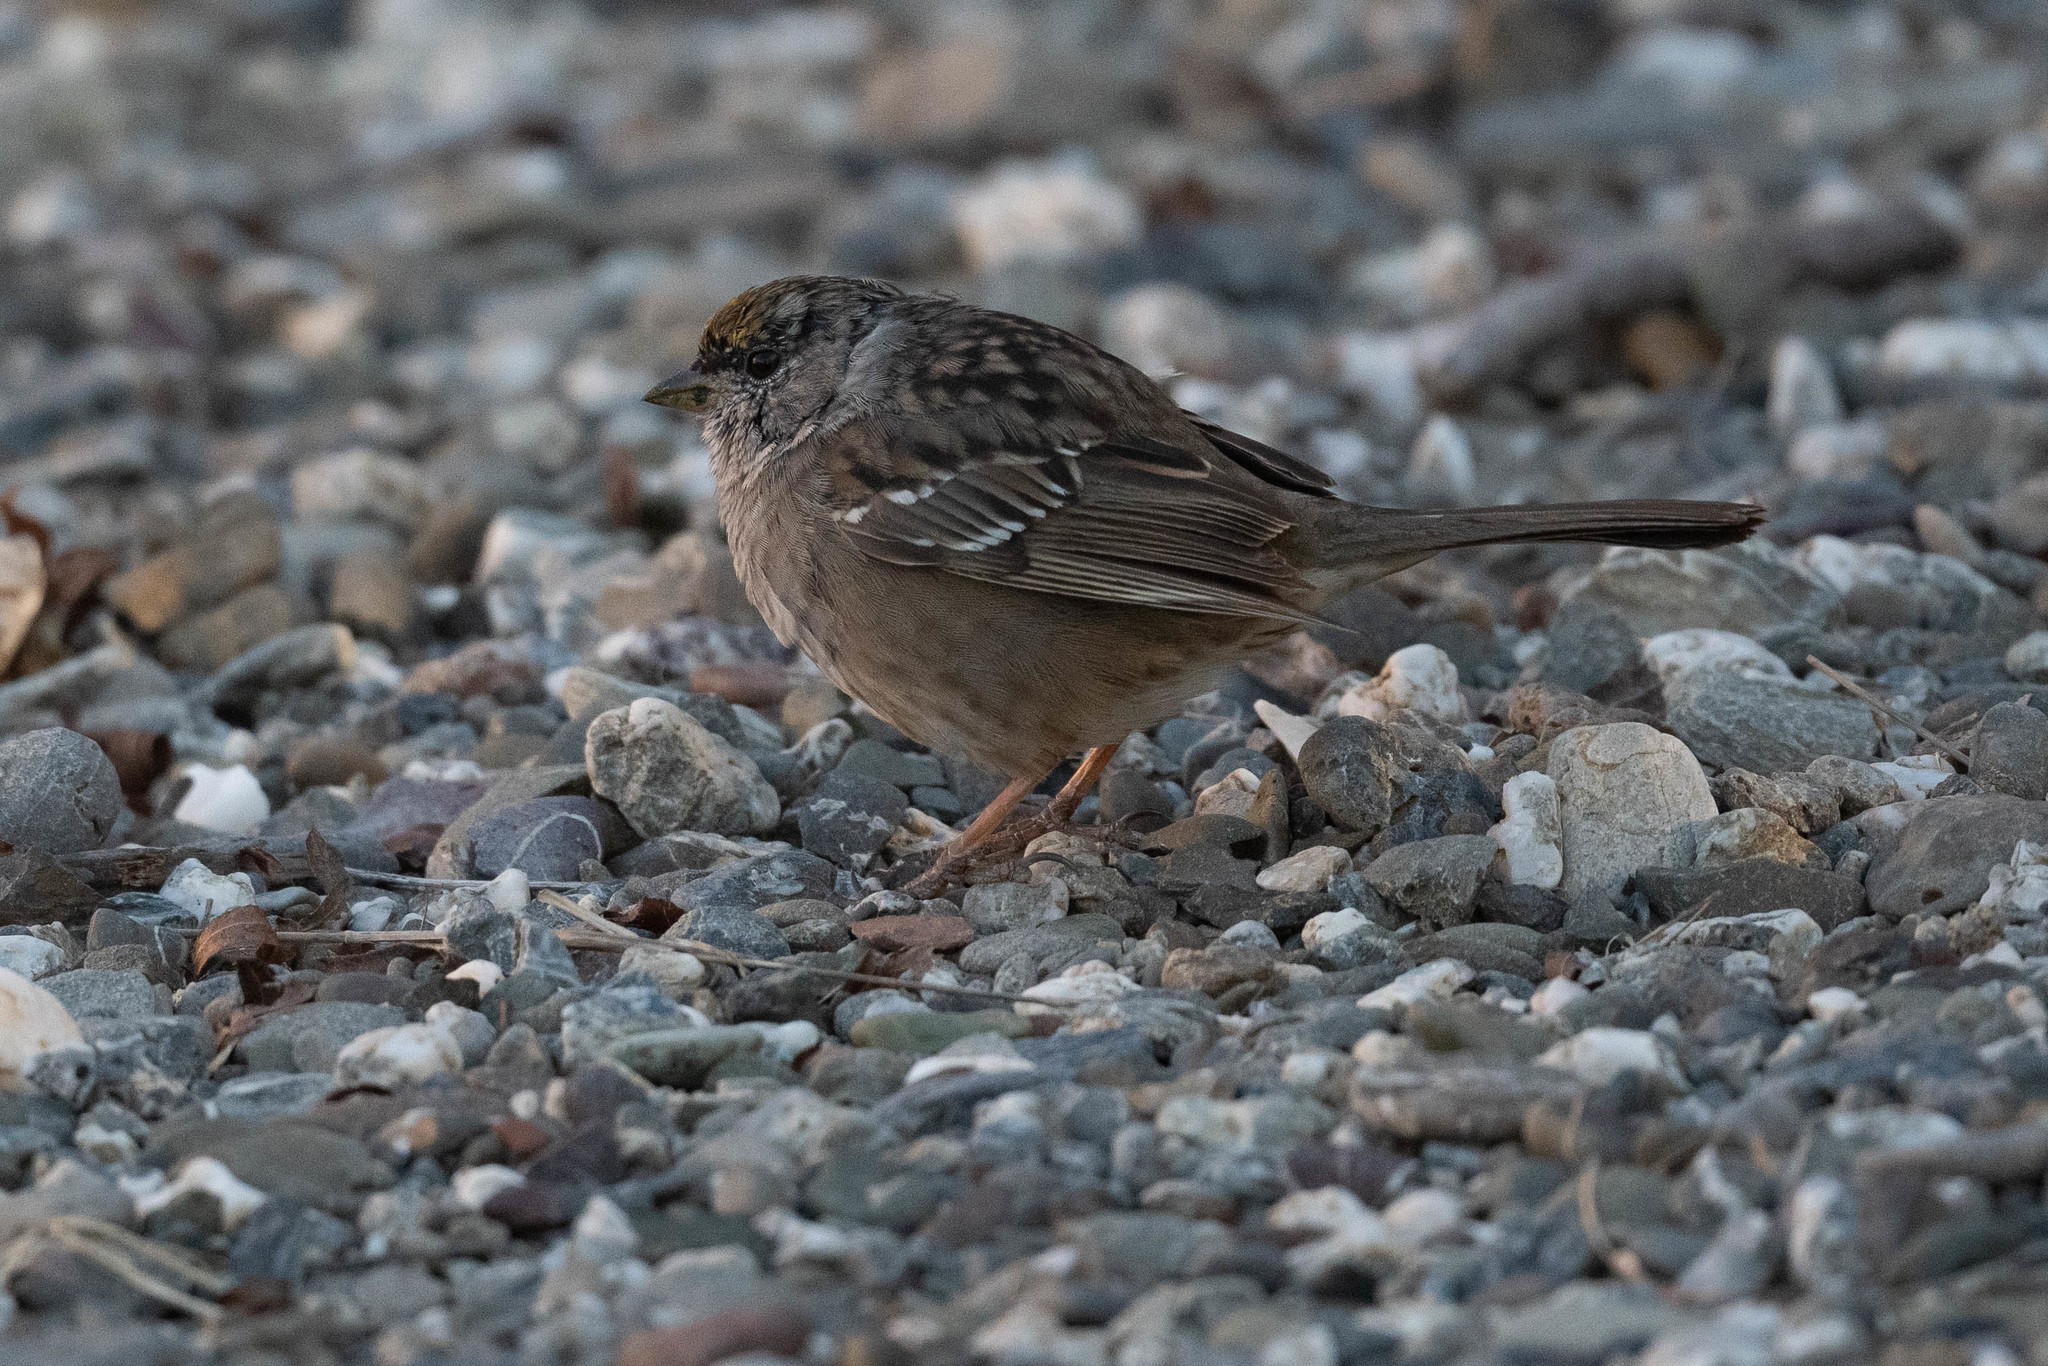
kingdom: Animalia
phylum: Chordata
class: Aves
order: Passeriformes
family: Passerellidae
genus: Zonotrichia
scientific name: Zonotrichia atricapilla
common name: Golden-crowned sparrow
